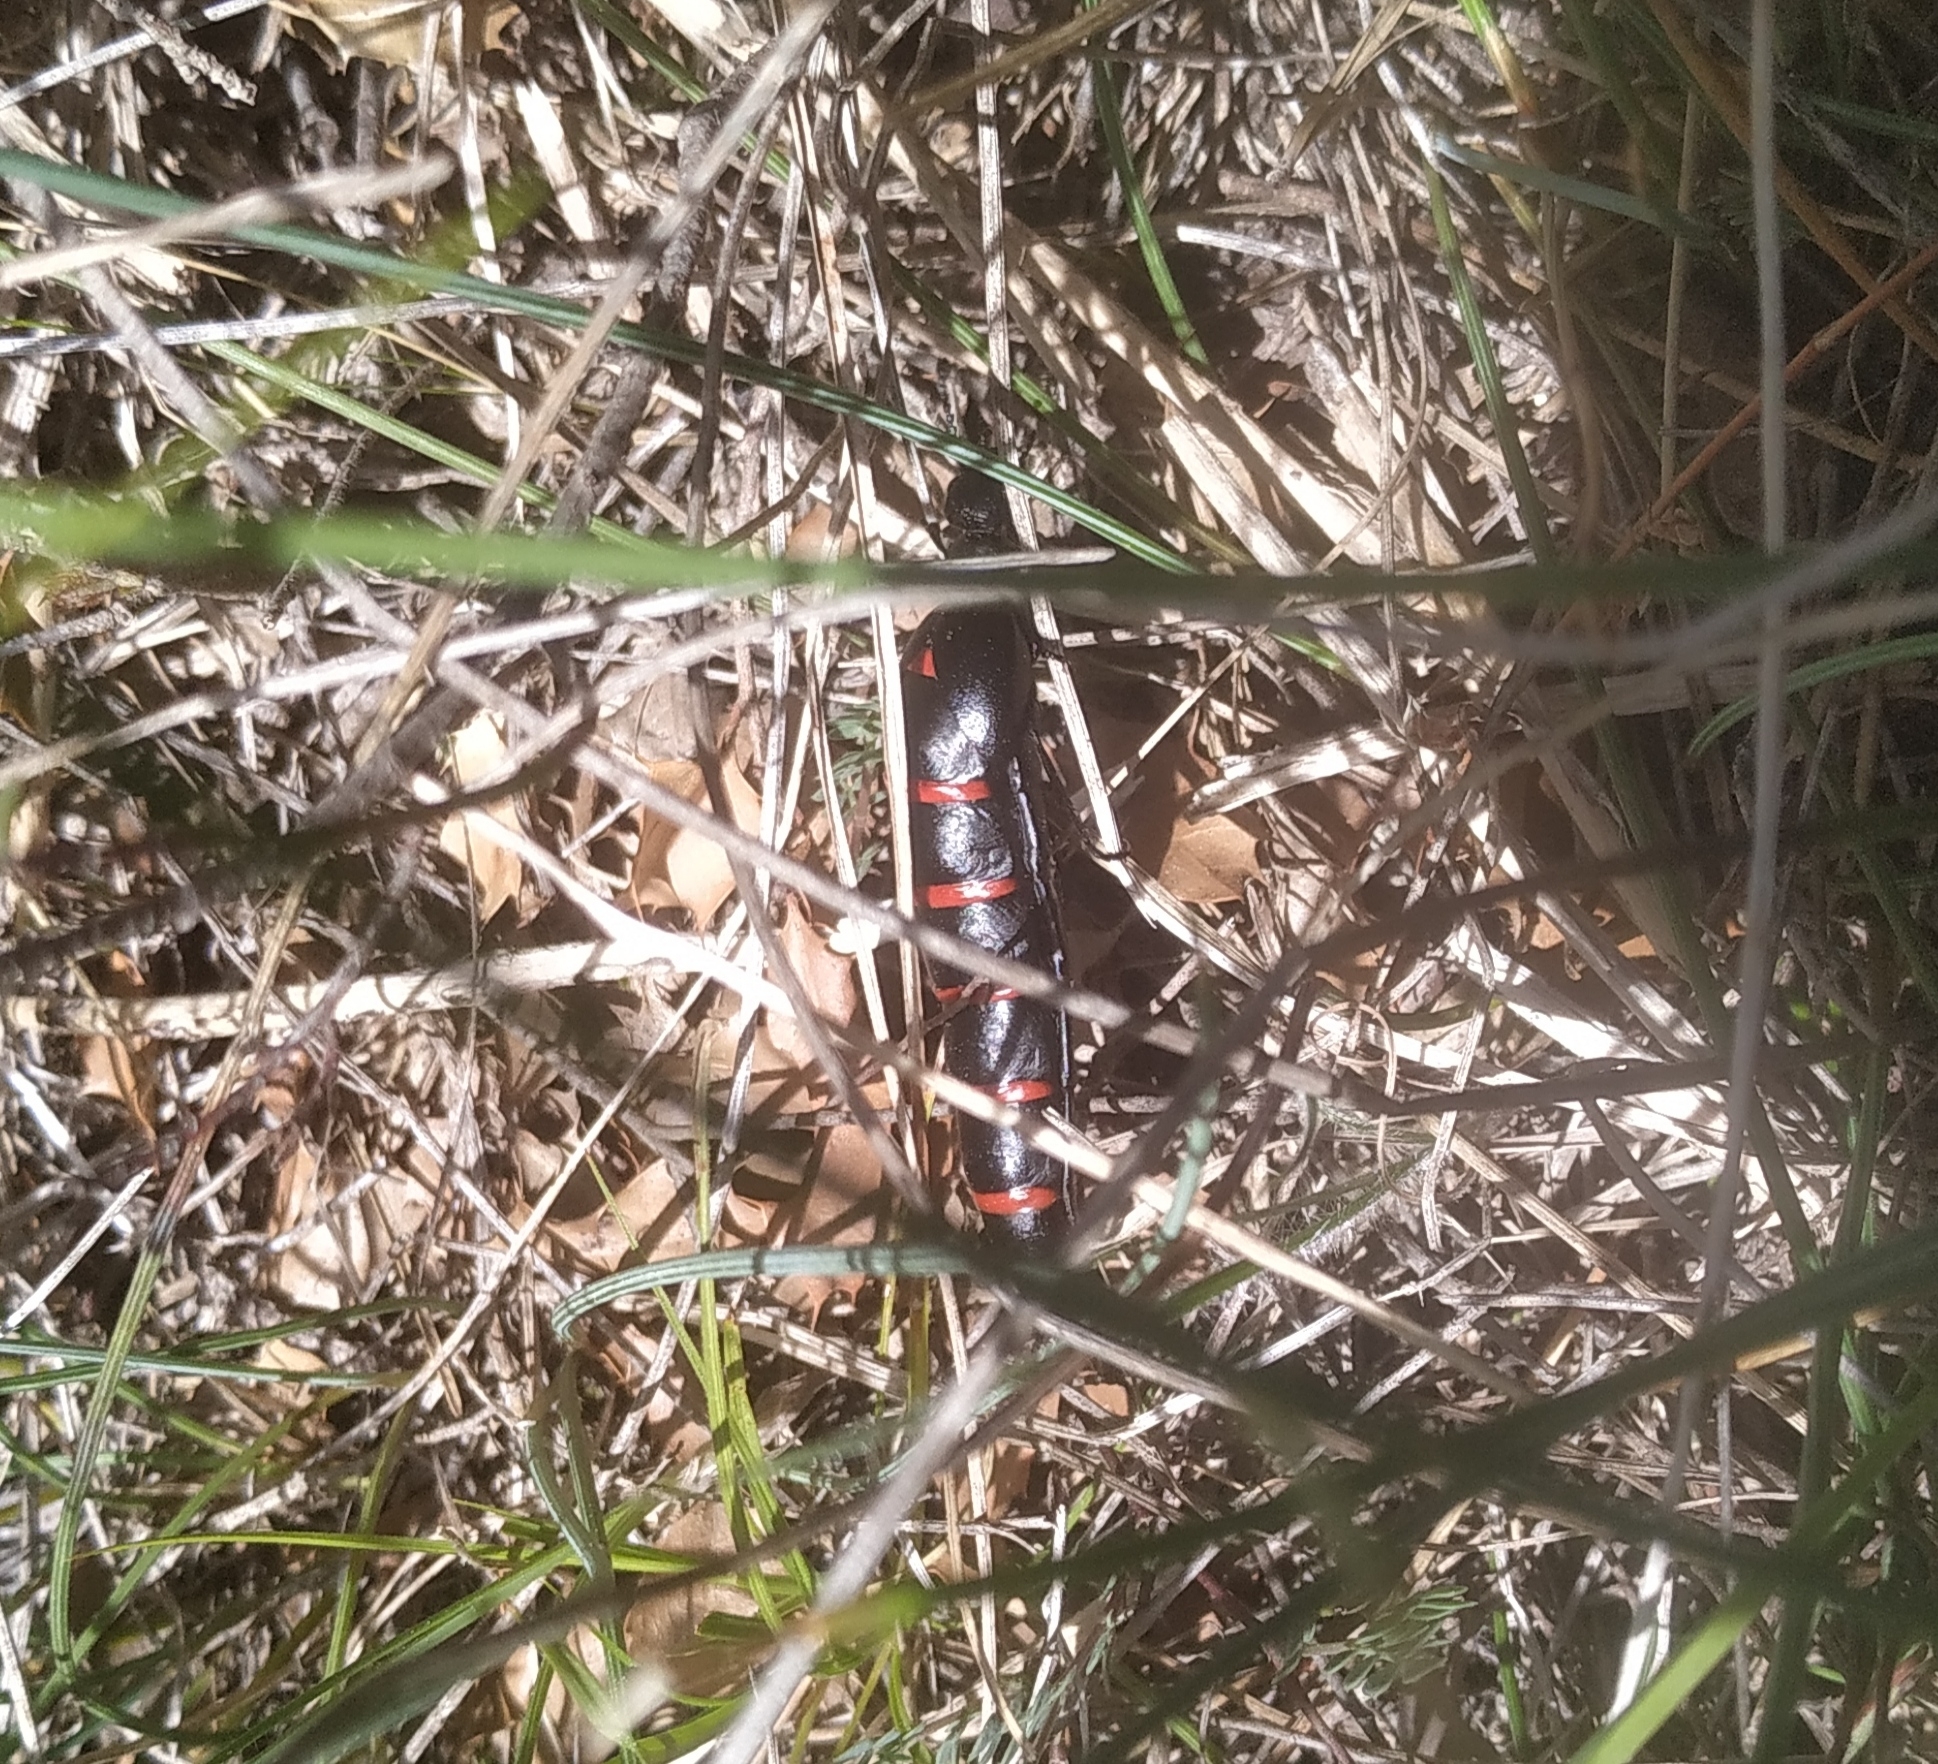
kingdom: Animalia
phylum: Arthropoda
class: Insecta
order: Coleoptera
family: Meloidae
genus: Berberomeloe
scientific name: Berberomeloe majalis
